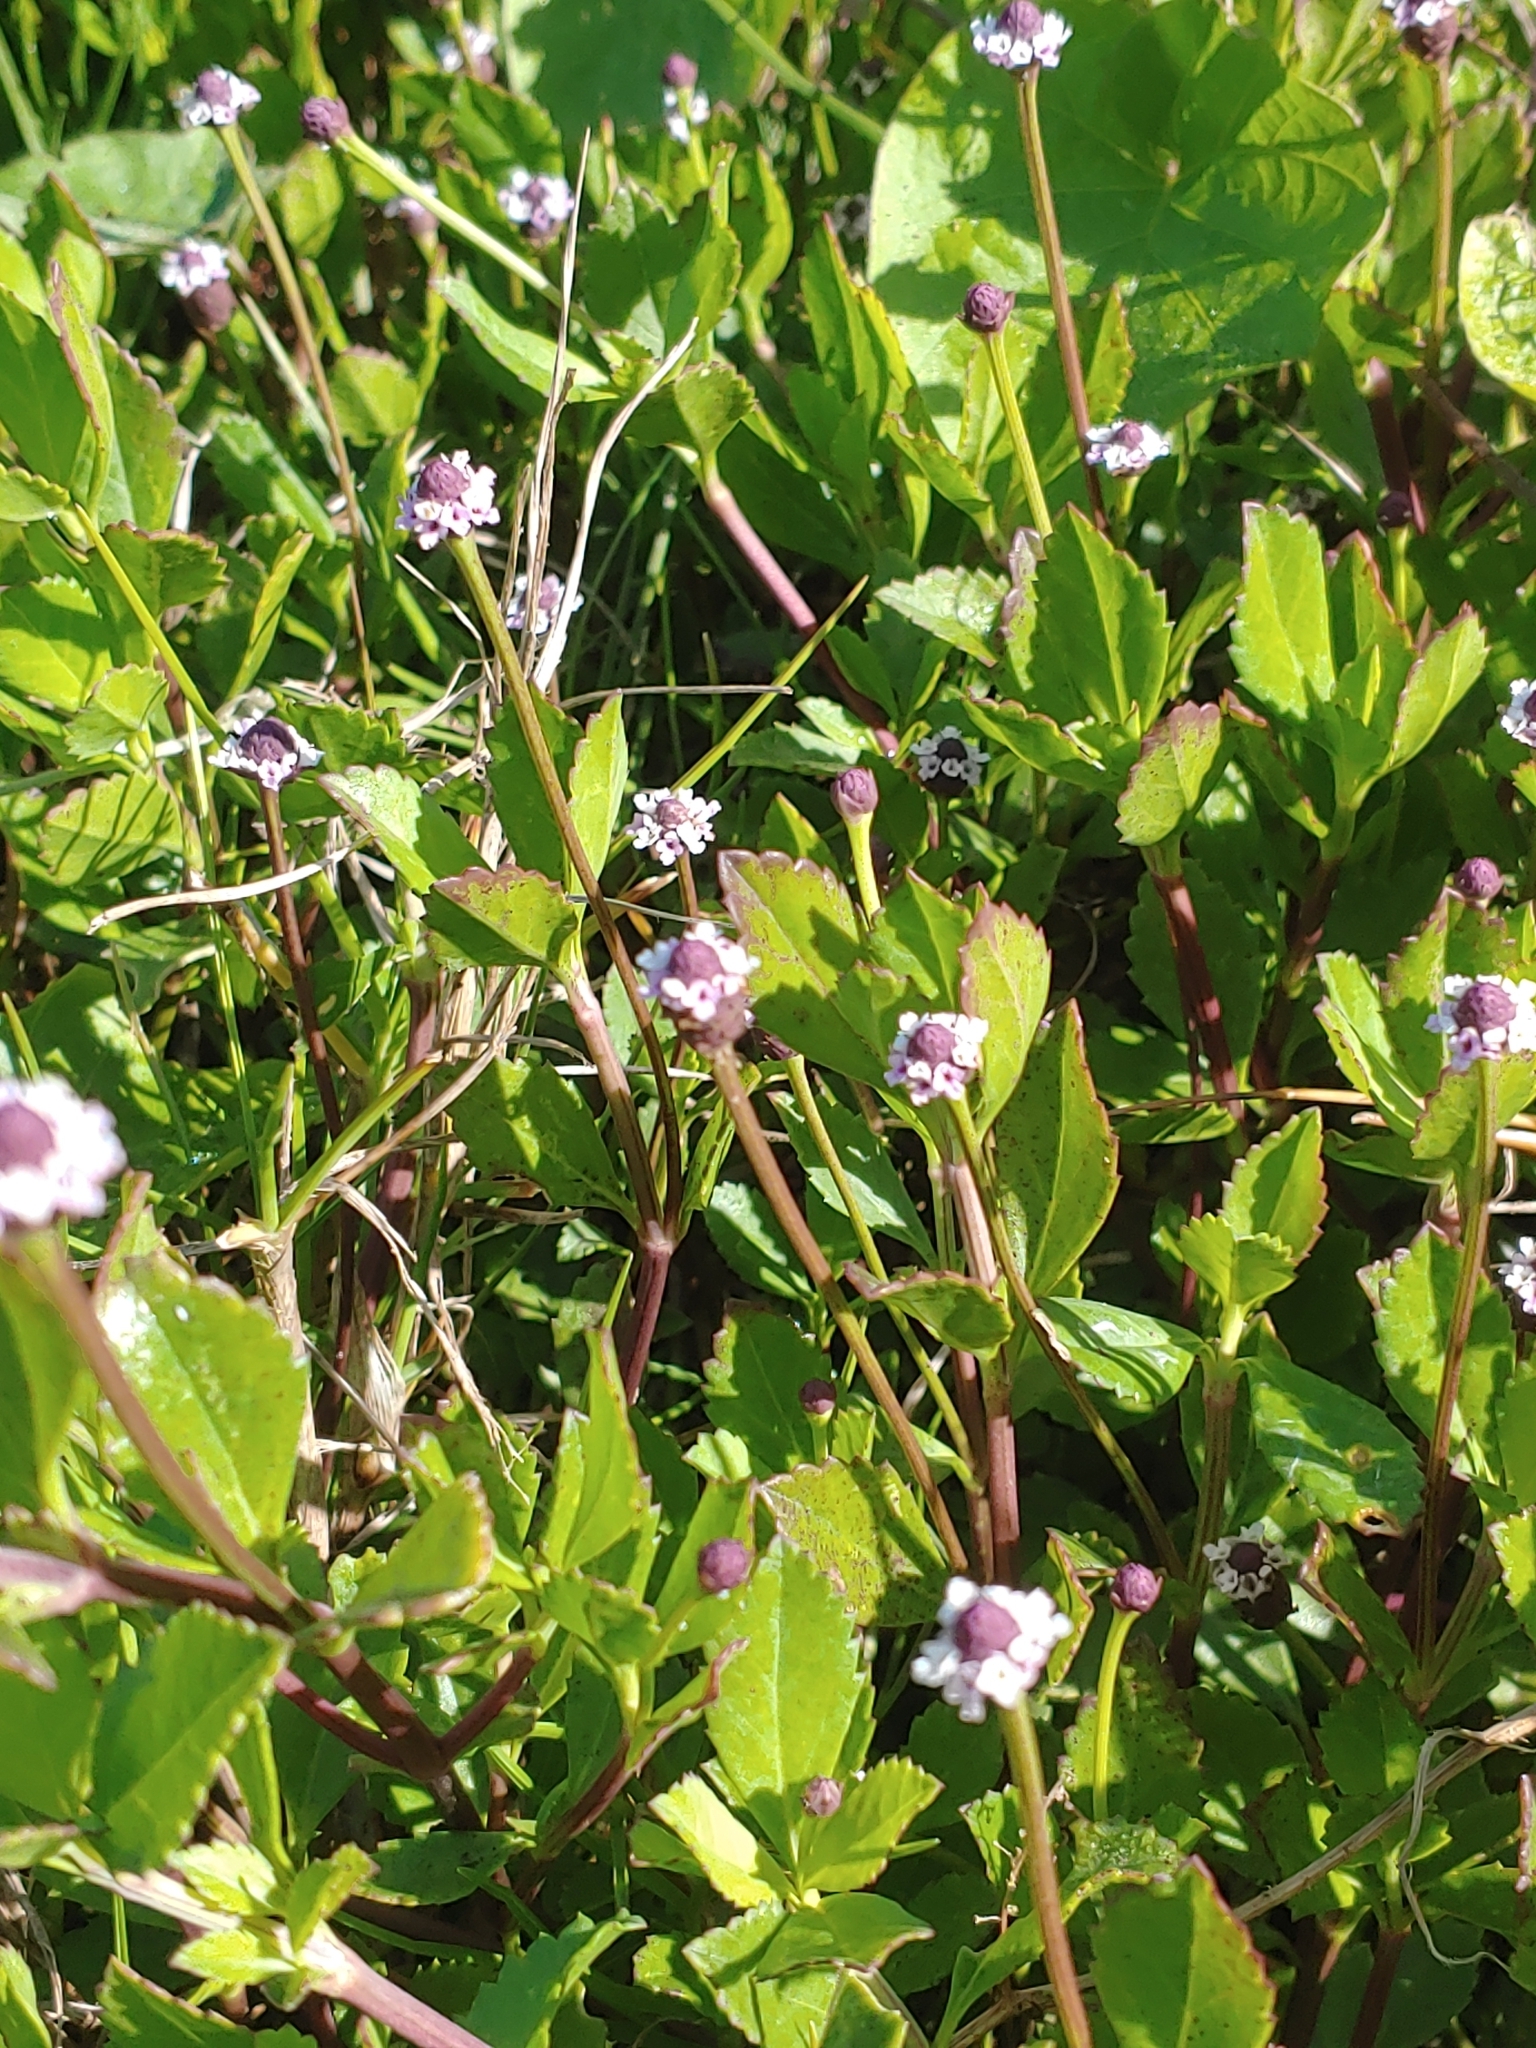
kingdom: Plantae
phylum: Tracheophyta
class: Magnoliopsida
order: Lamiales
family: Verbenaceae
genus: Phyla
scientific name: Phyla nodiflora
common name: Frogfruit
